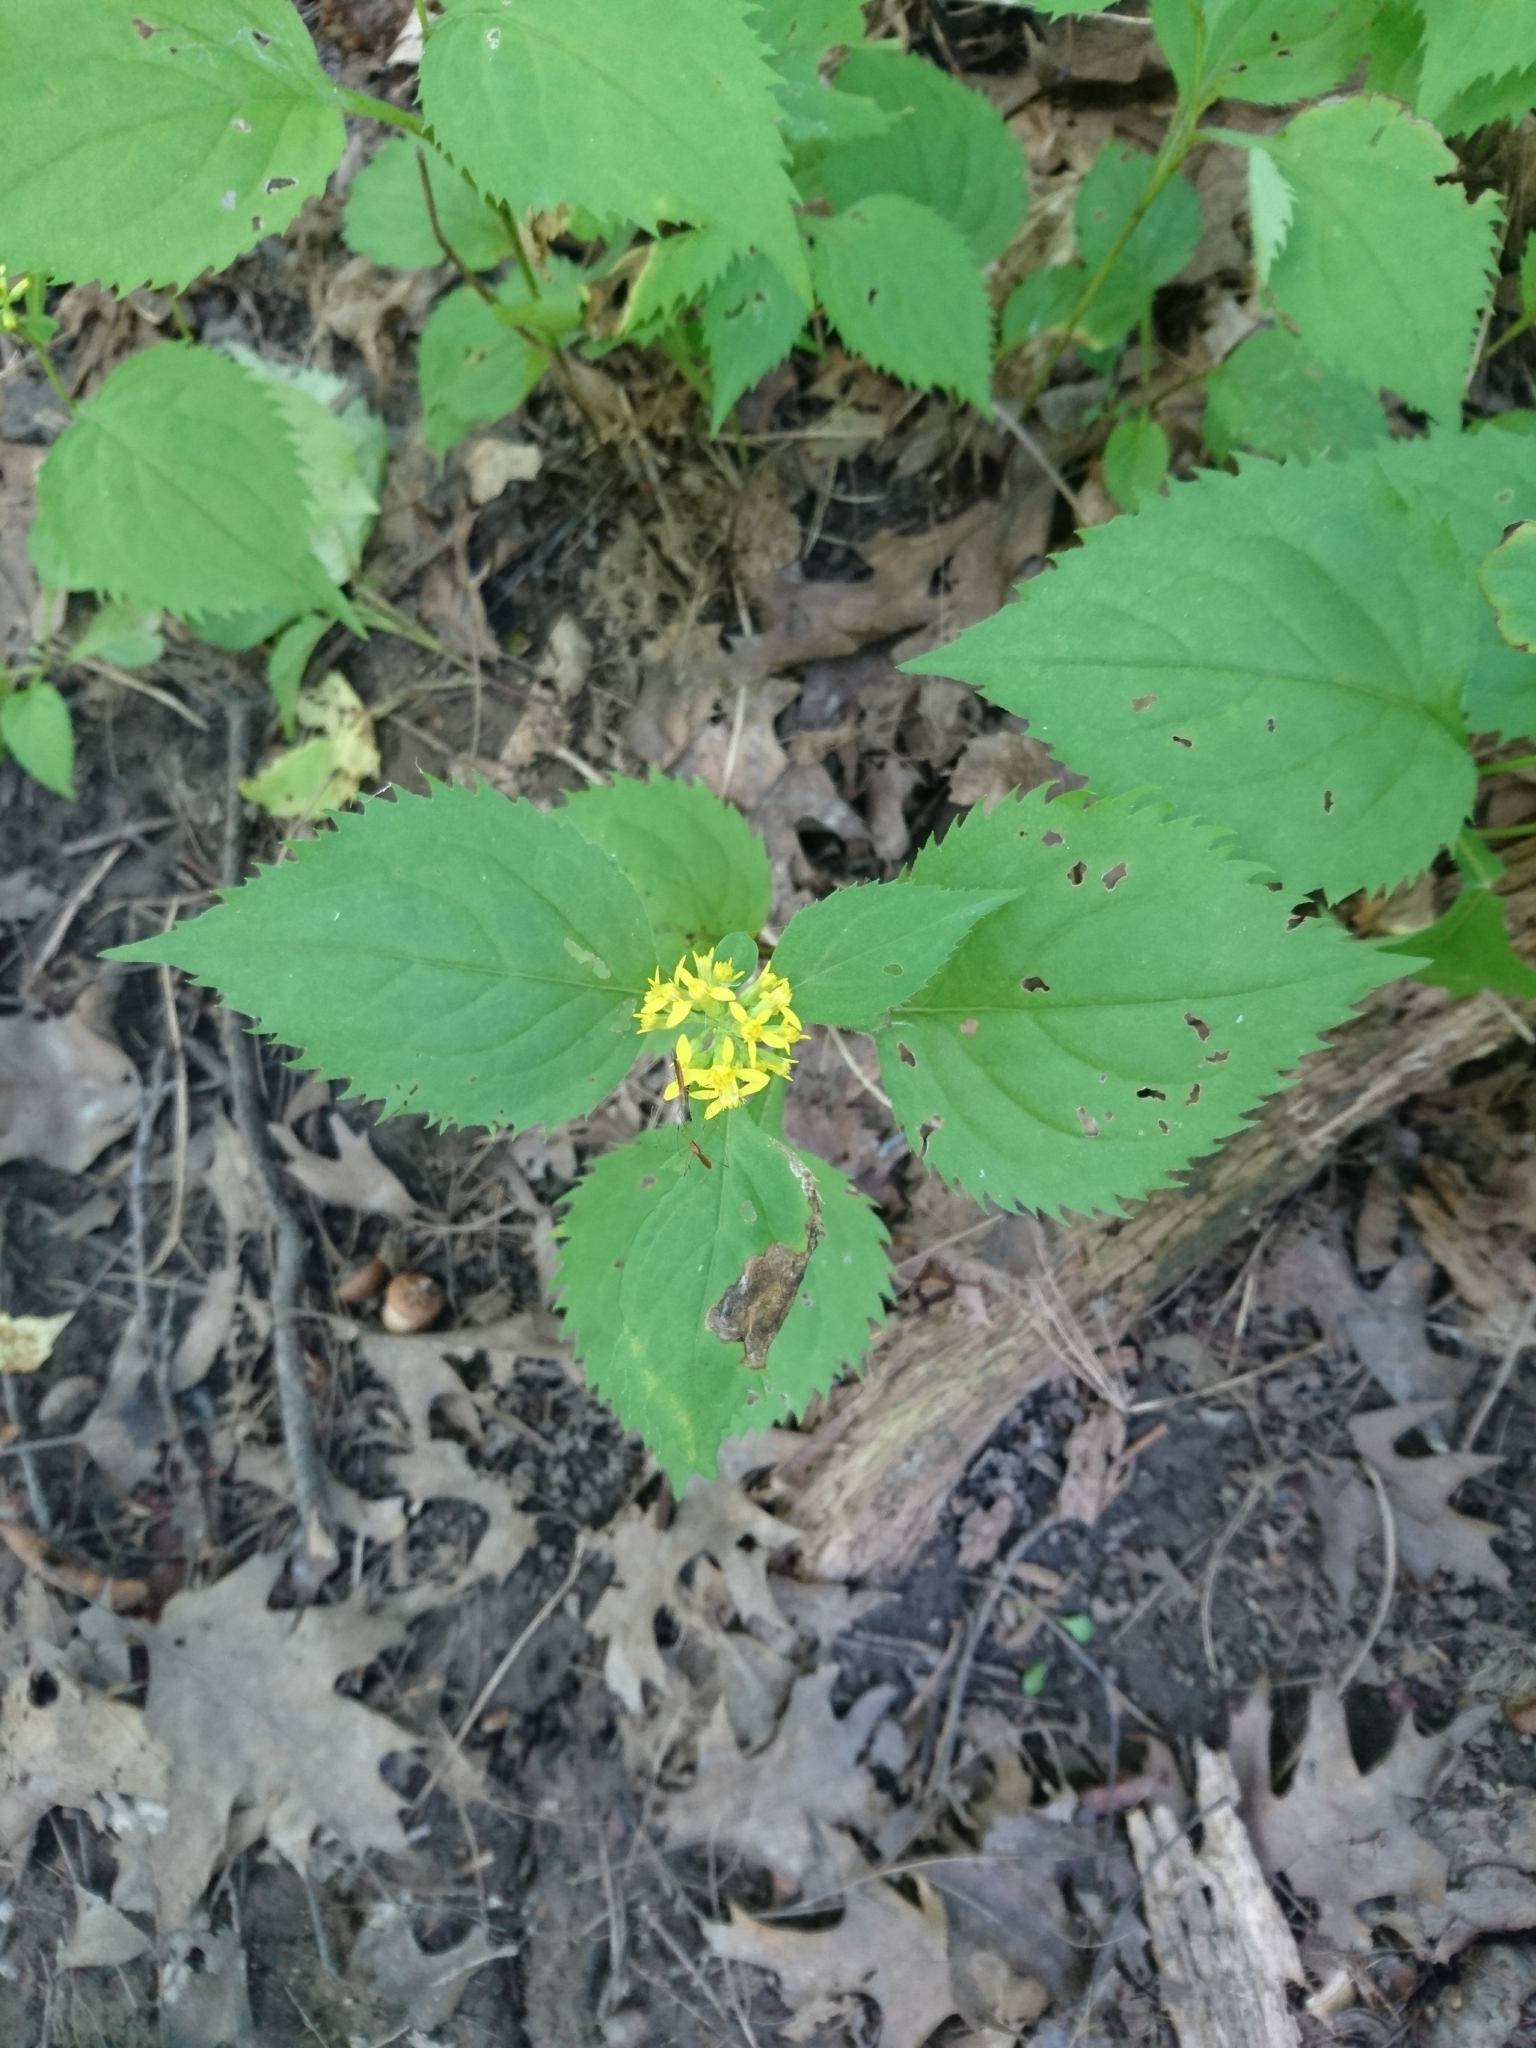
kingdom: Plantae
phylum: Tracheophyta
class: Magnoliopsida
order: Asterales
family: Asteraceae
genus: Solidago
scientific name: Solidago flexicaulis
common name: Zig-zag goldenrod
